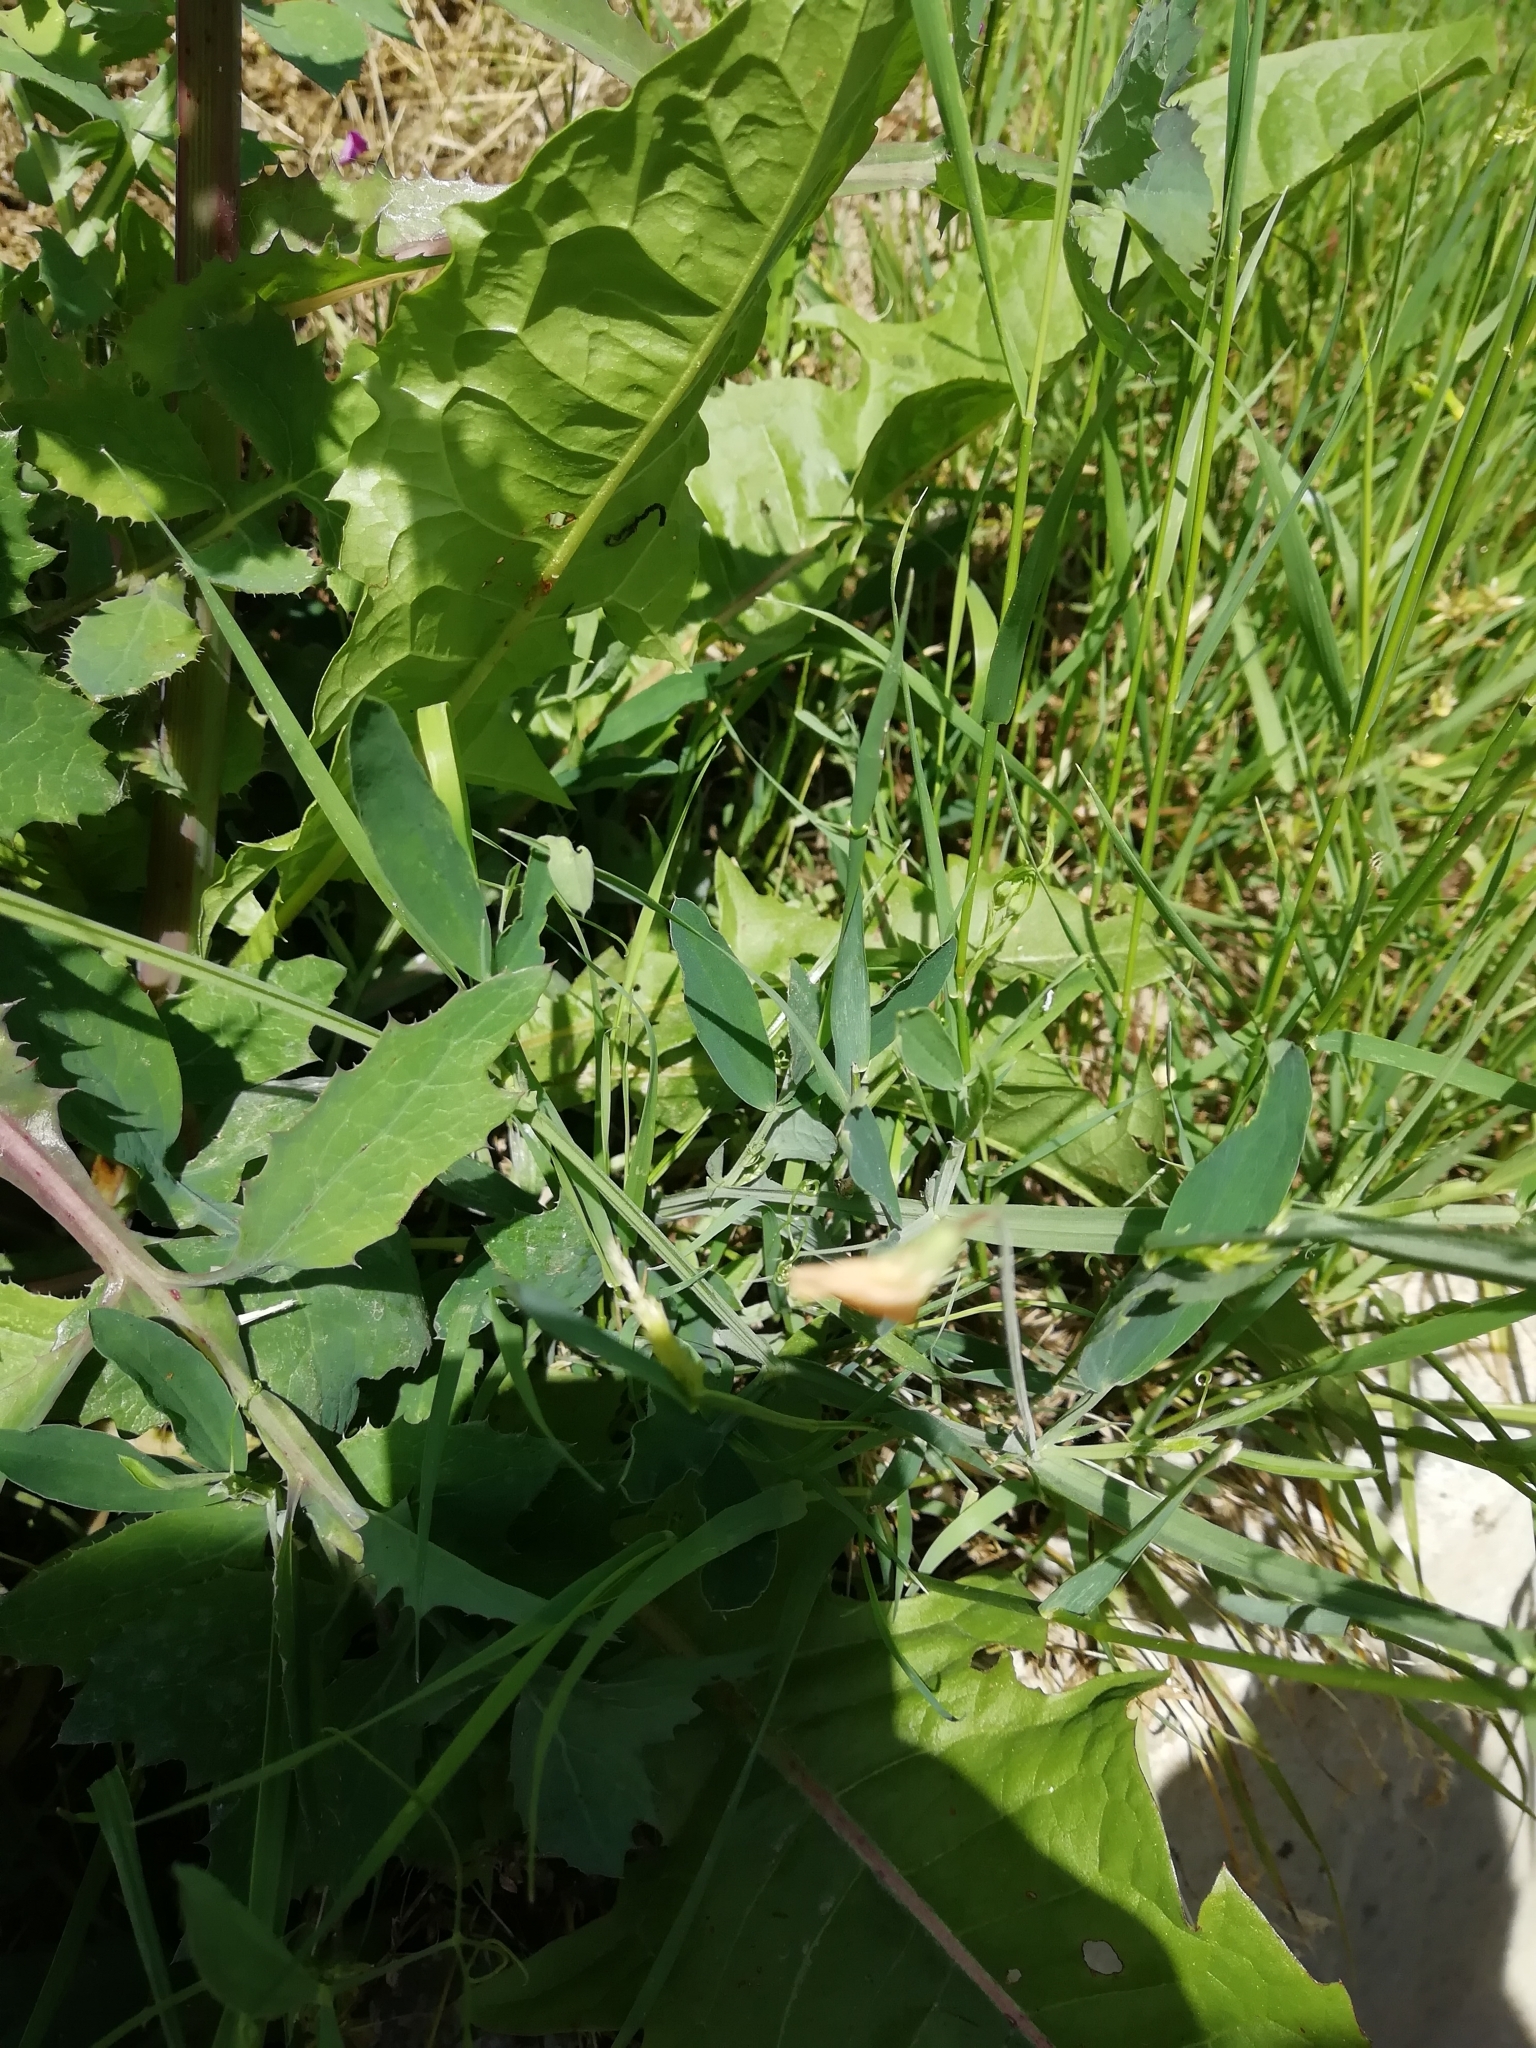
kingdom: Plantae
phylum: Tracheophyta
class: Magnoliopsida
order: Fabales
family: Fabaceae
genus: Lathyrus
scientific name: Lathyrus hirsutus
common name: Hairy vetchling
